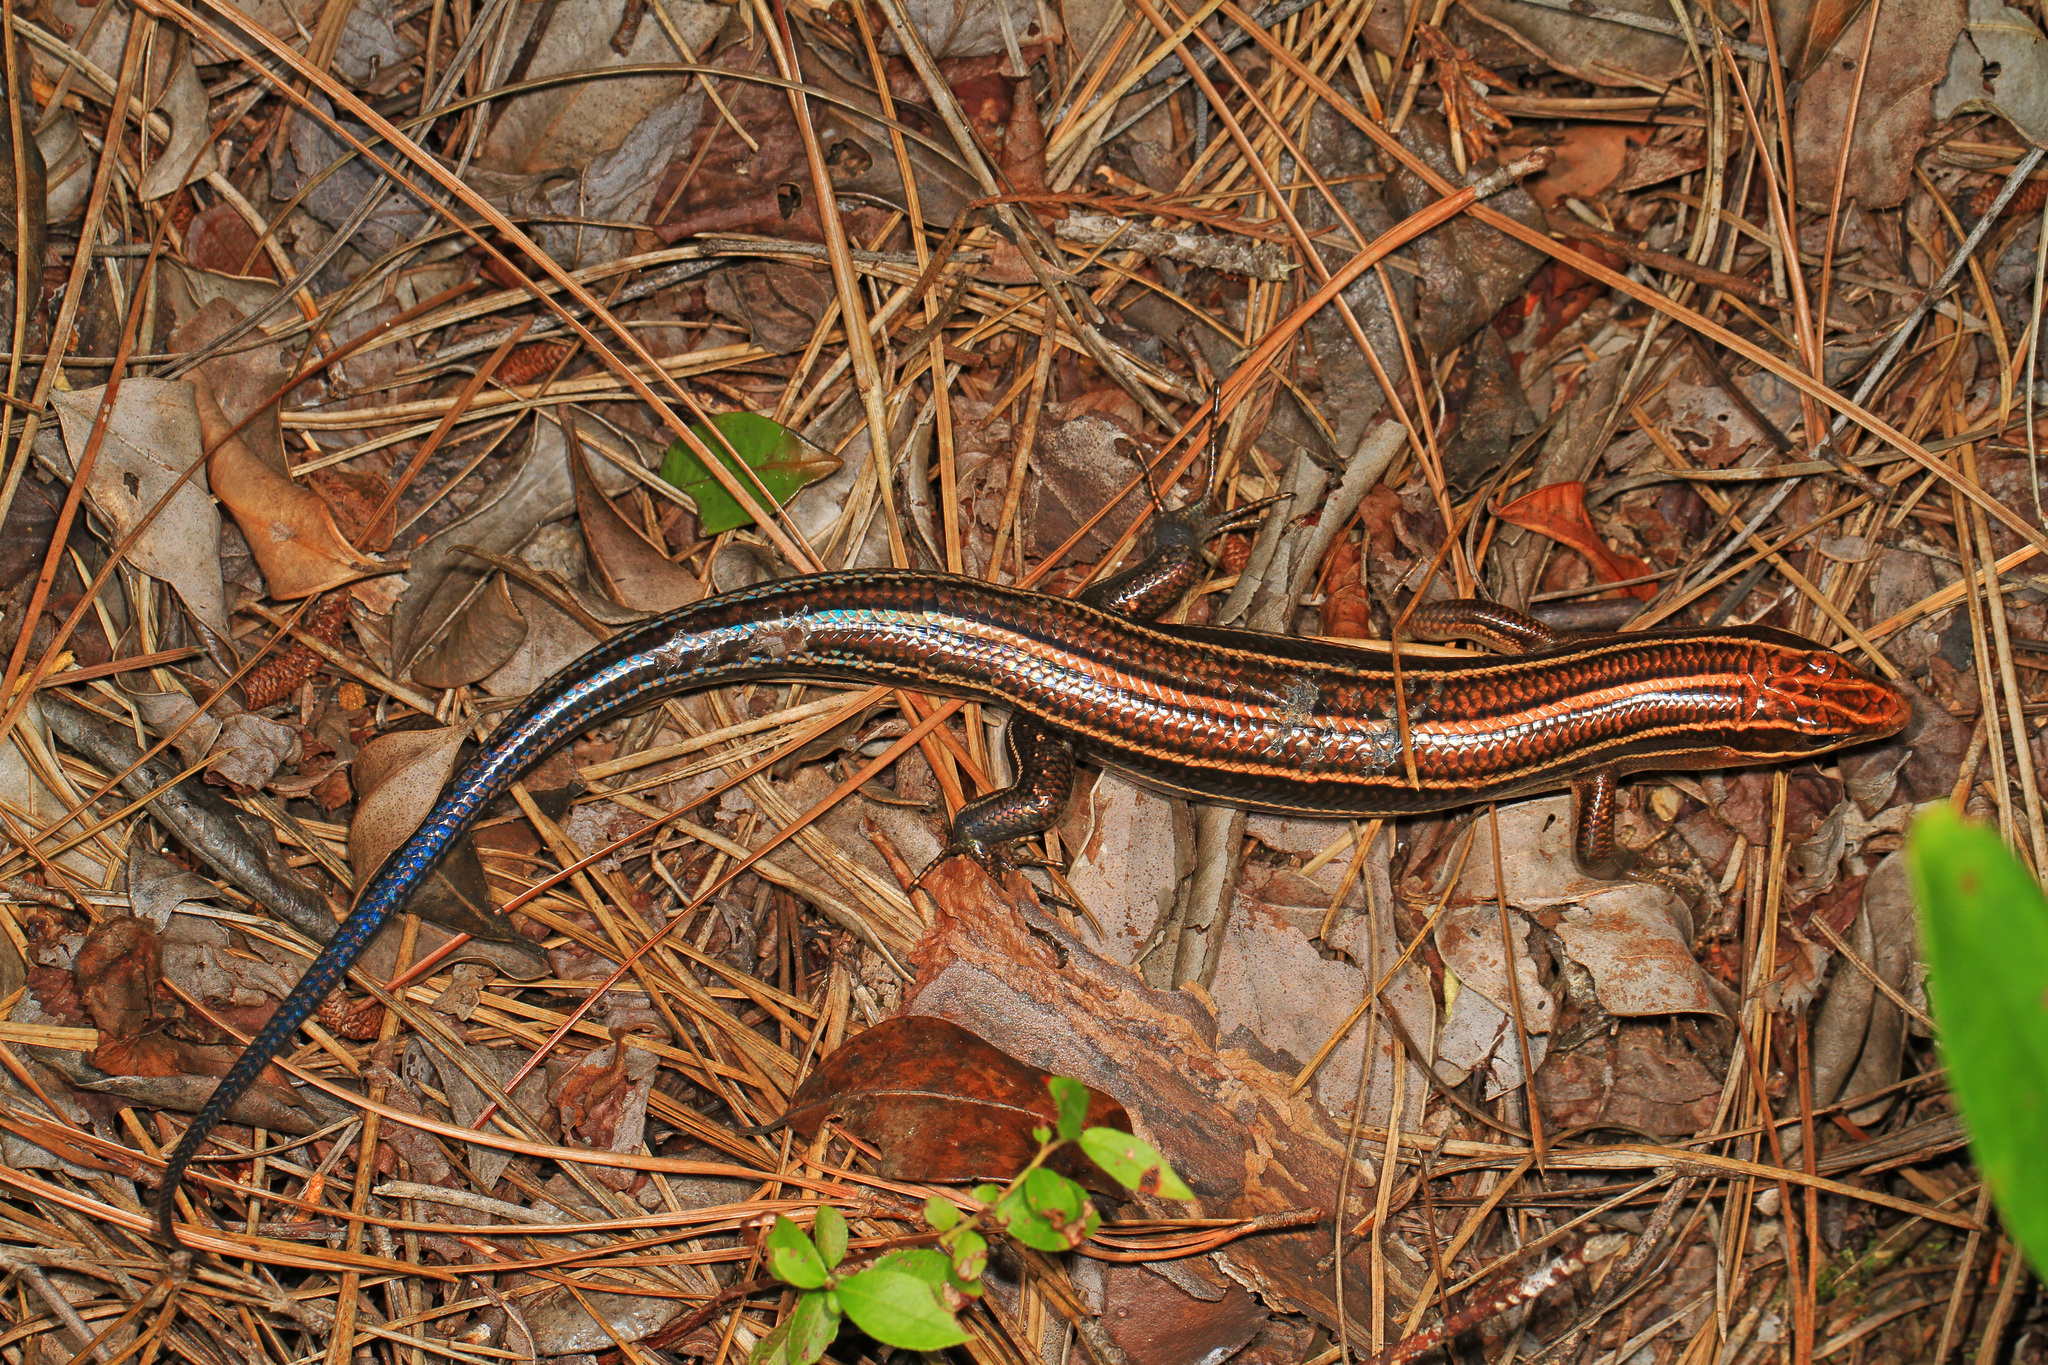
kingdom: Animalia
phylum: Chordata
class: Squamata
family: Scincidae
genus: Plestiodon
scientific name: Plestiodon inexpectatus
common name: Southeastern five-lined skink
